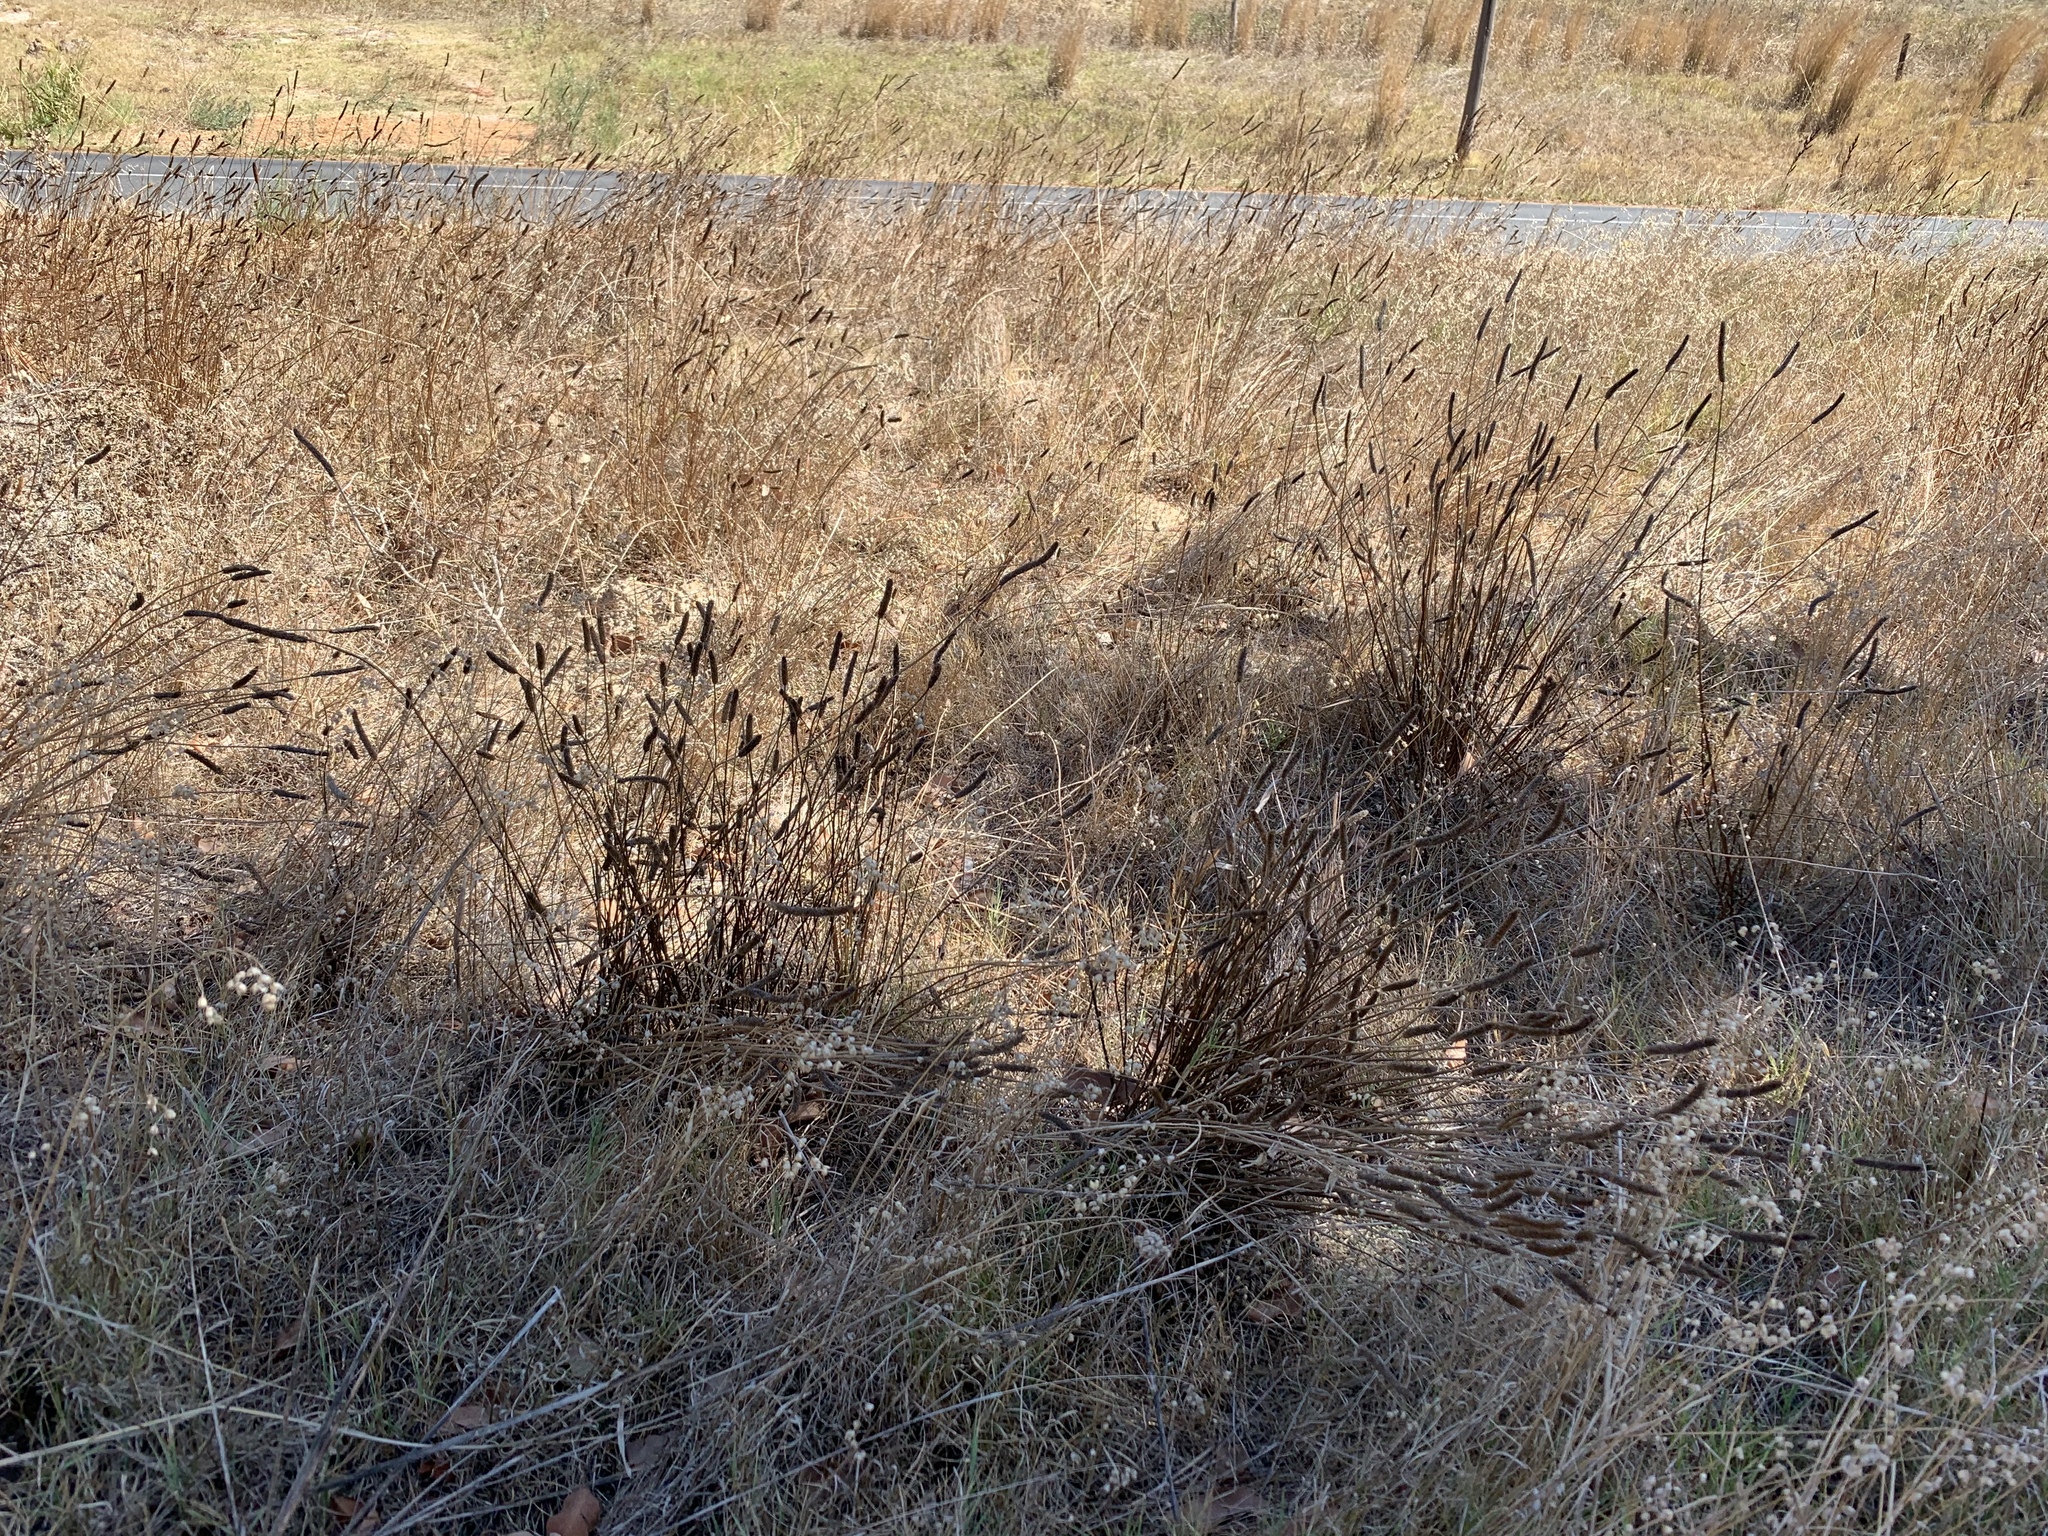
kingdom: Plantae
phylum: Tracheophyta
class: Magnoliopsida
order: Lamiales
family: Plantaginaceae
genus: Plantago
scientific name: Plantago lanceolata
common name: Ribwort plantain
